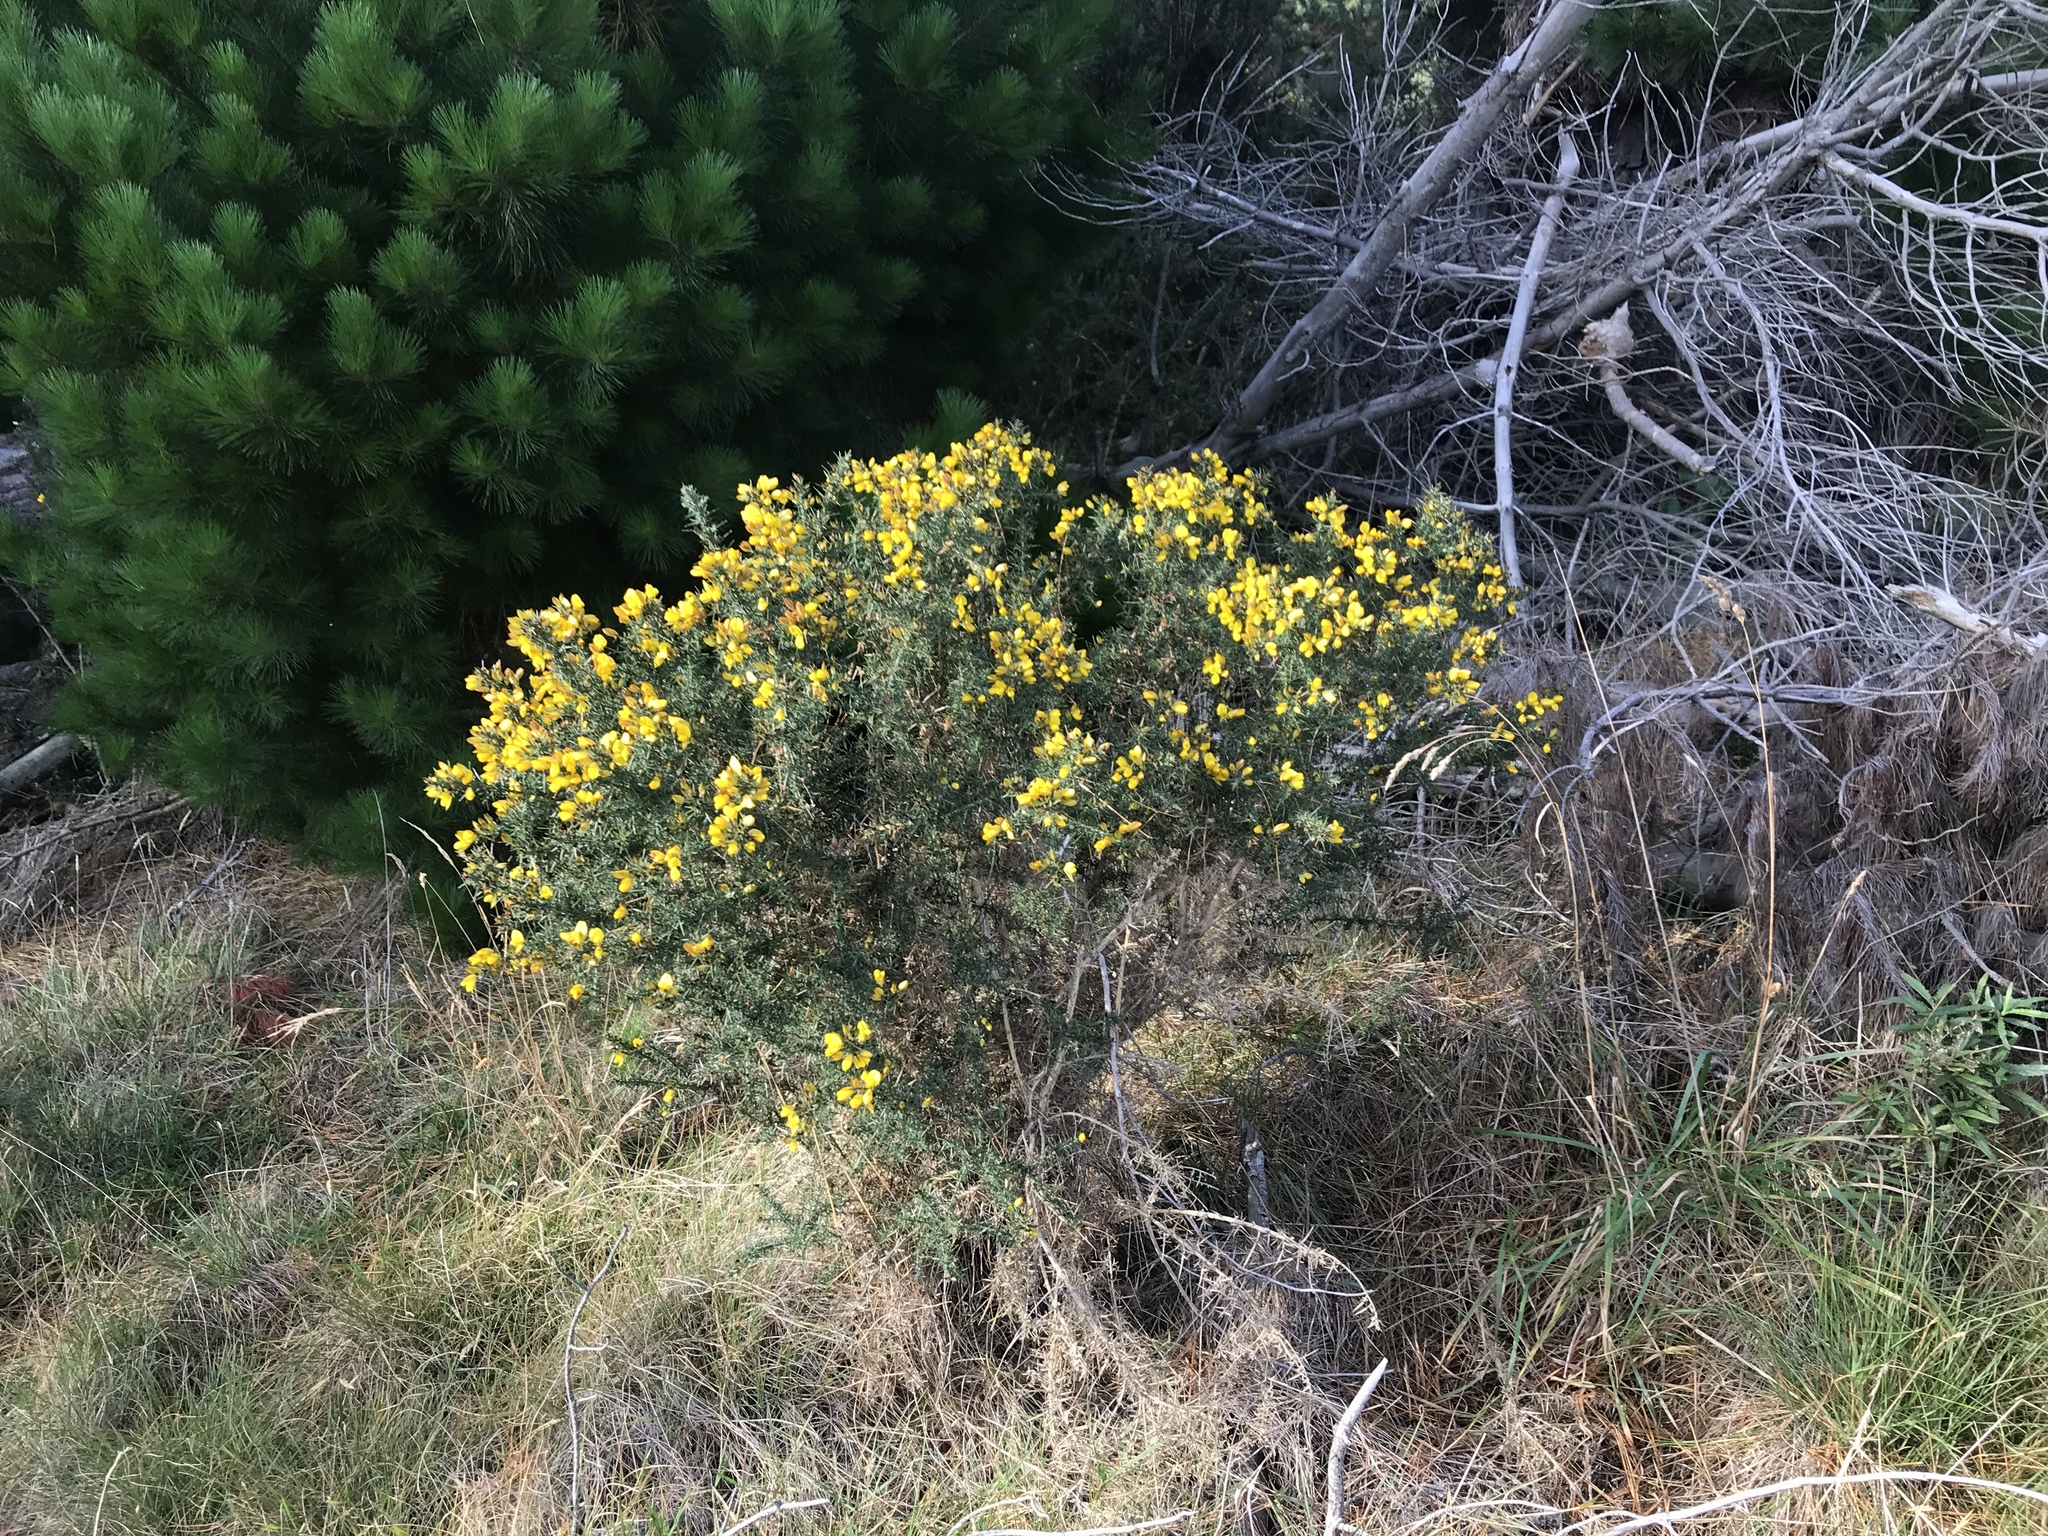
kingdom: Plantae
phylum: Tracheophyta
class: Magnoliopsida
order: Fabales
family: Fabaceae
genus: Ulex
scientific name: Ulex europaeus
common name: Common gorse
